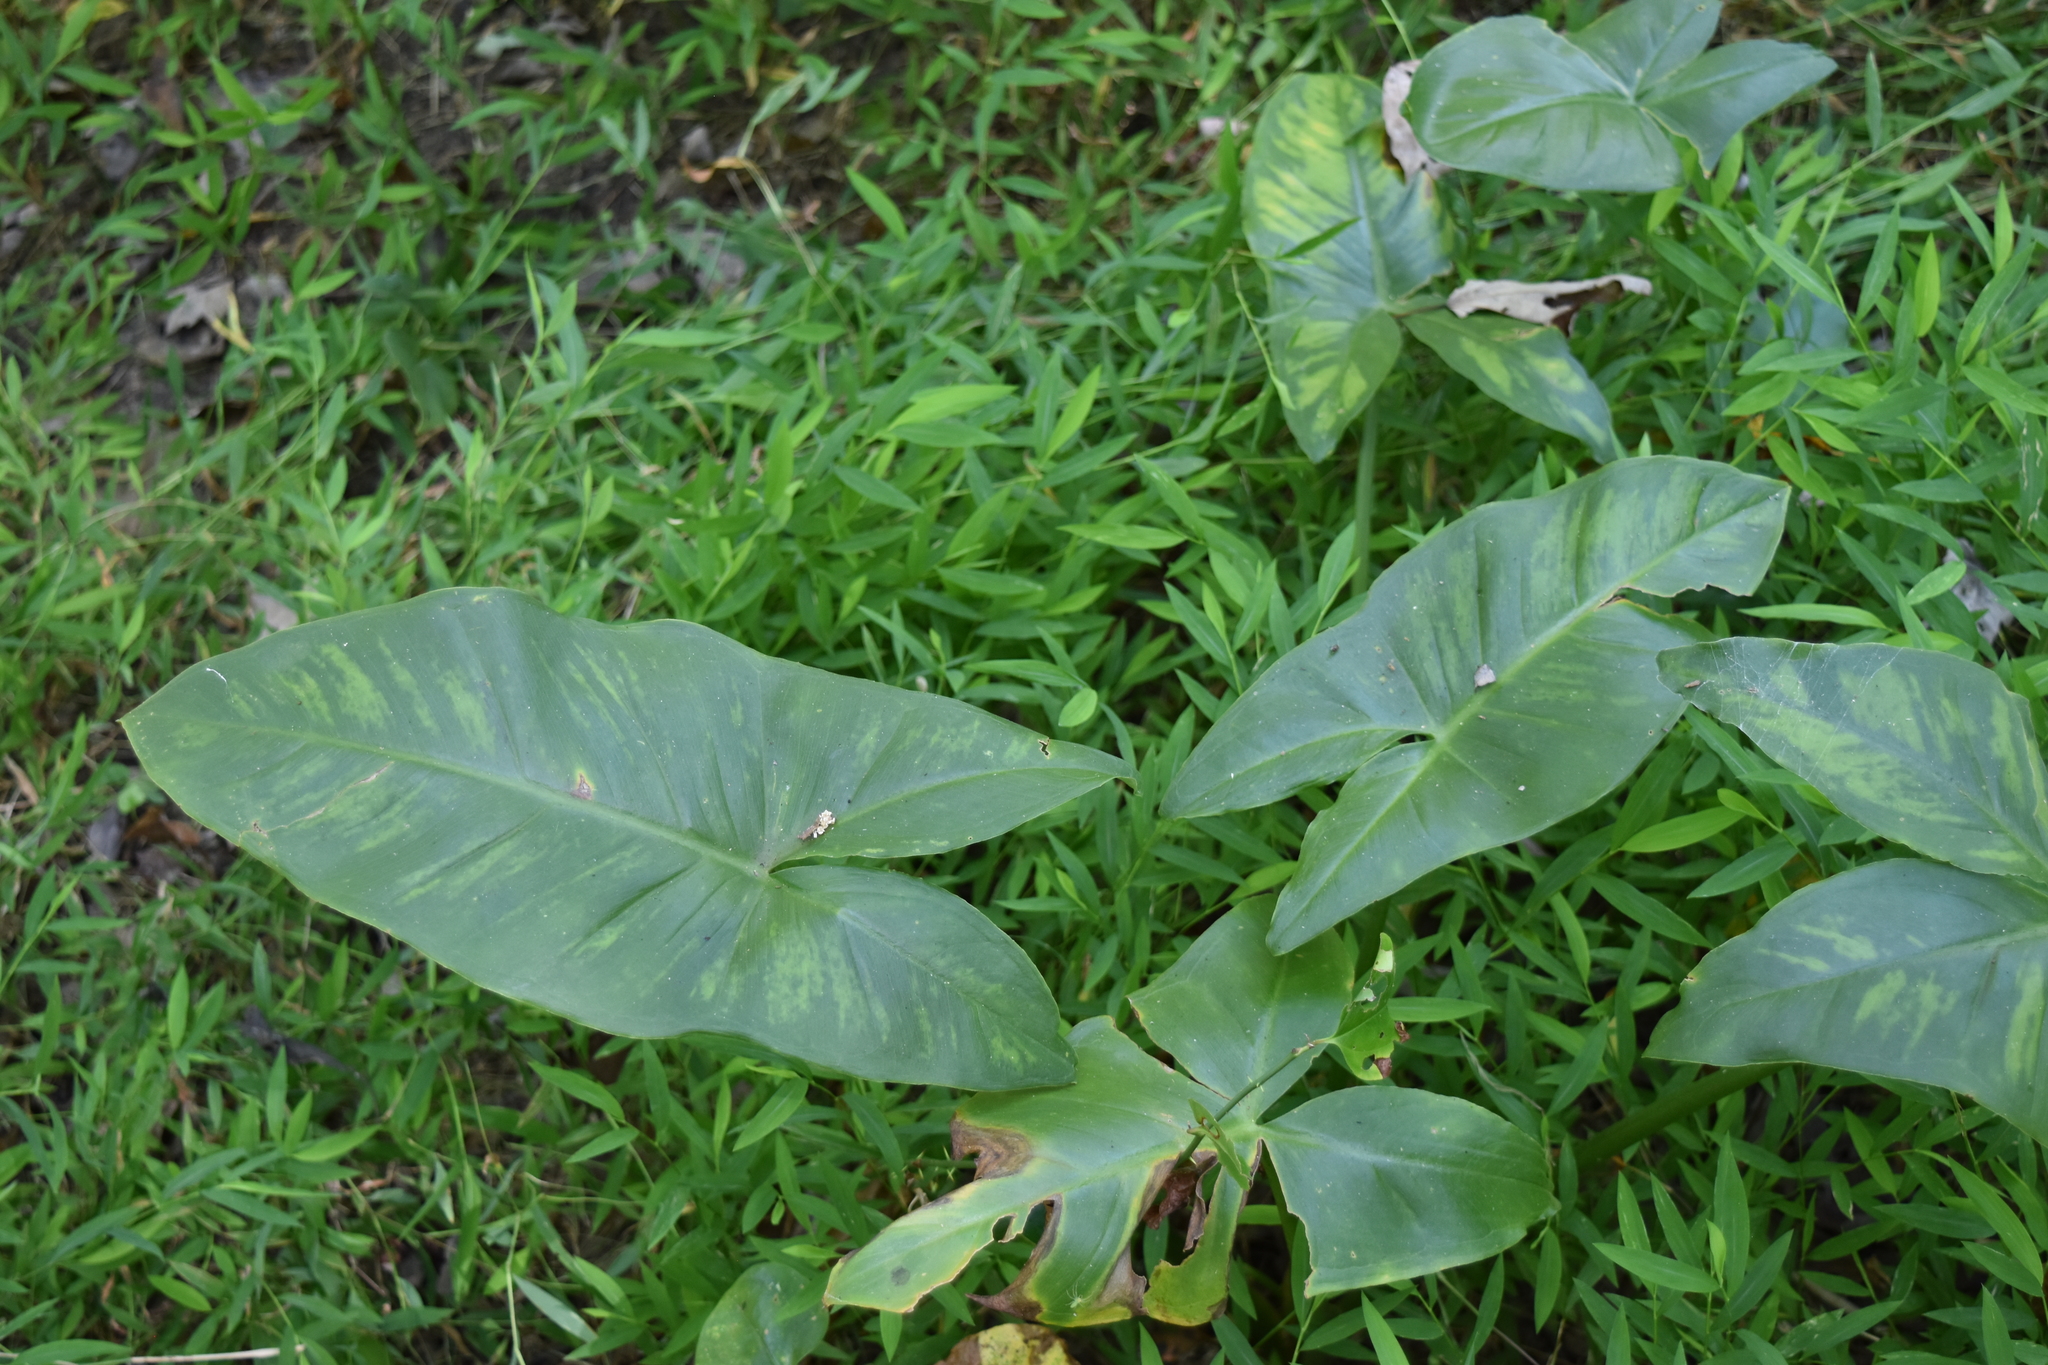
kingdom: Plantae
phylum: Tracheophyta
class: Liliopsida
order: Alismatales
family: Araceae
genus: Peltandra
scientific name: Peltandra virginica
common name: Arrow arum
